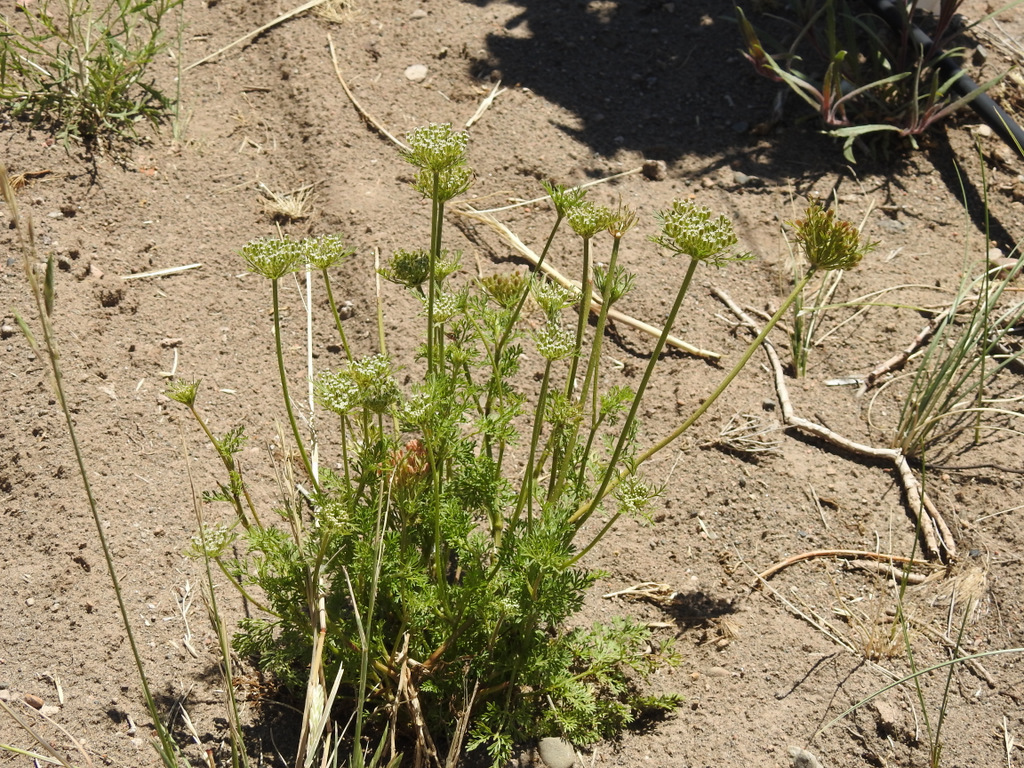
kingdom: Plantae
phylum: Tracheophyta
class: Magnoliopsida
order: Apiales
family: Apiaceae
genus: Daucus
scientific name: Daucus pusillus
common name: Southwest wild carrot
